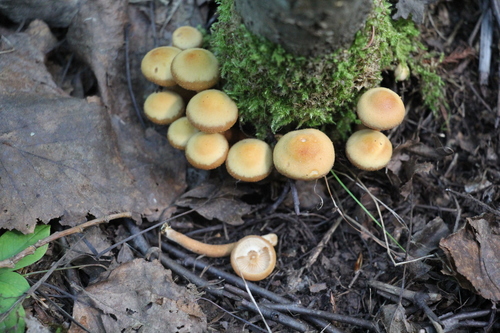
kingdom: Fungi
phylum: Basidiomycota
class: Agaricomycetes
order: Agaricales
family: Strophariaceae
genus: Kuehneromyces
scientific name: Kuehneromyces mutabilis
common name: Sheathed woodtuft
